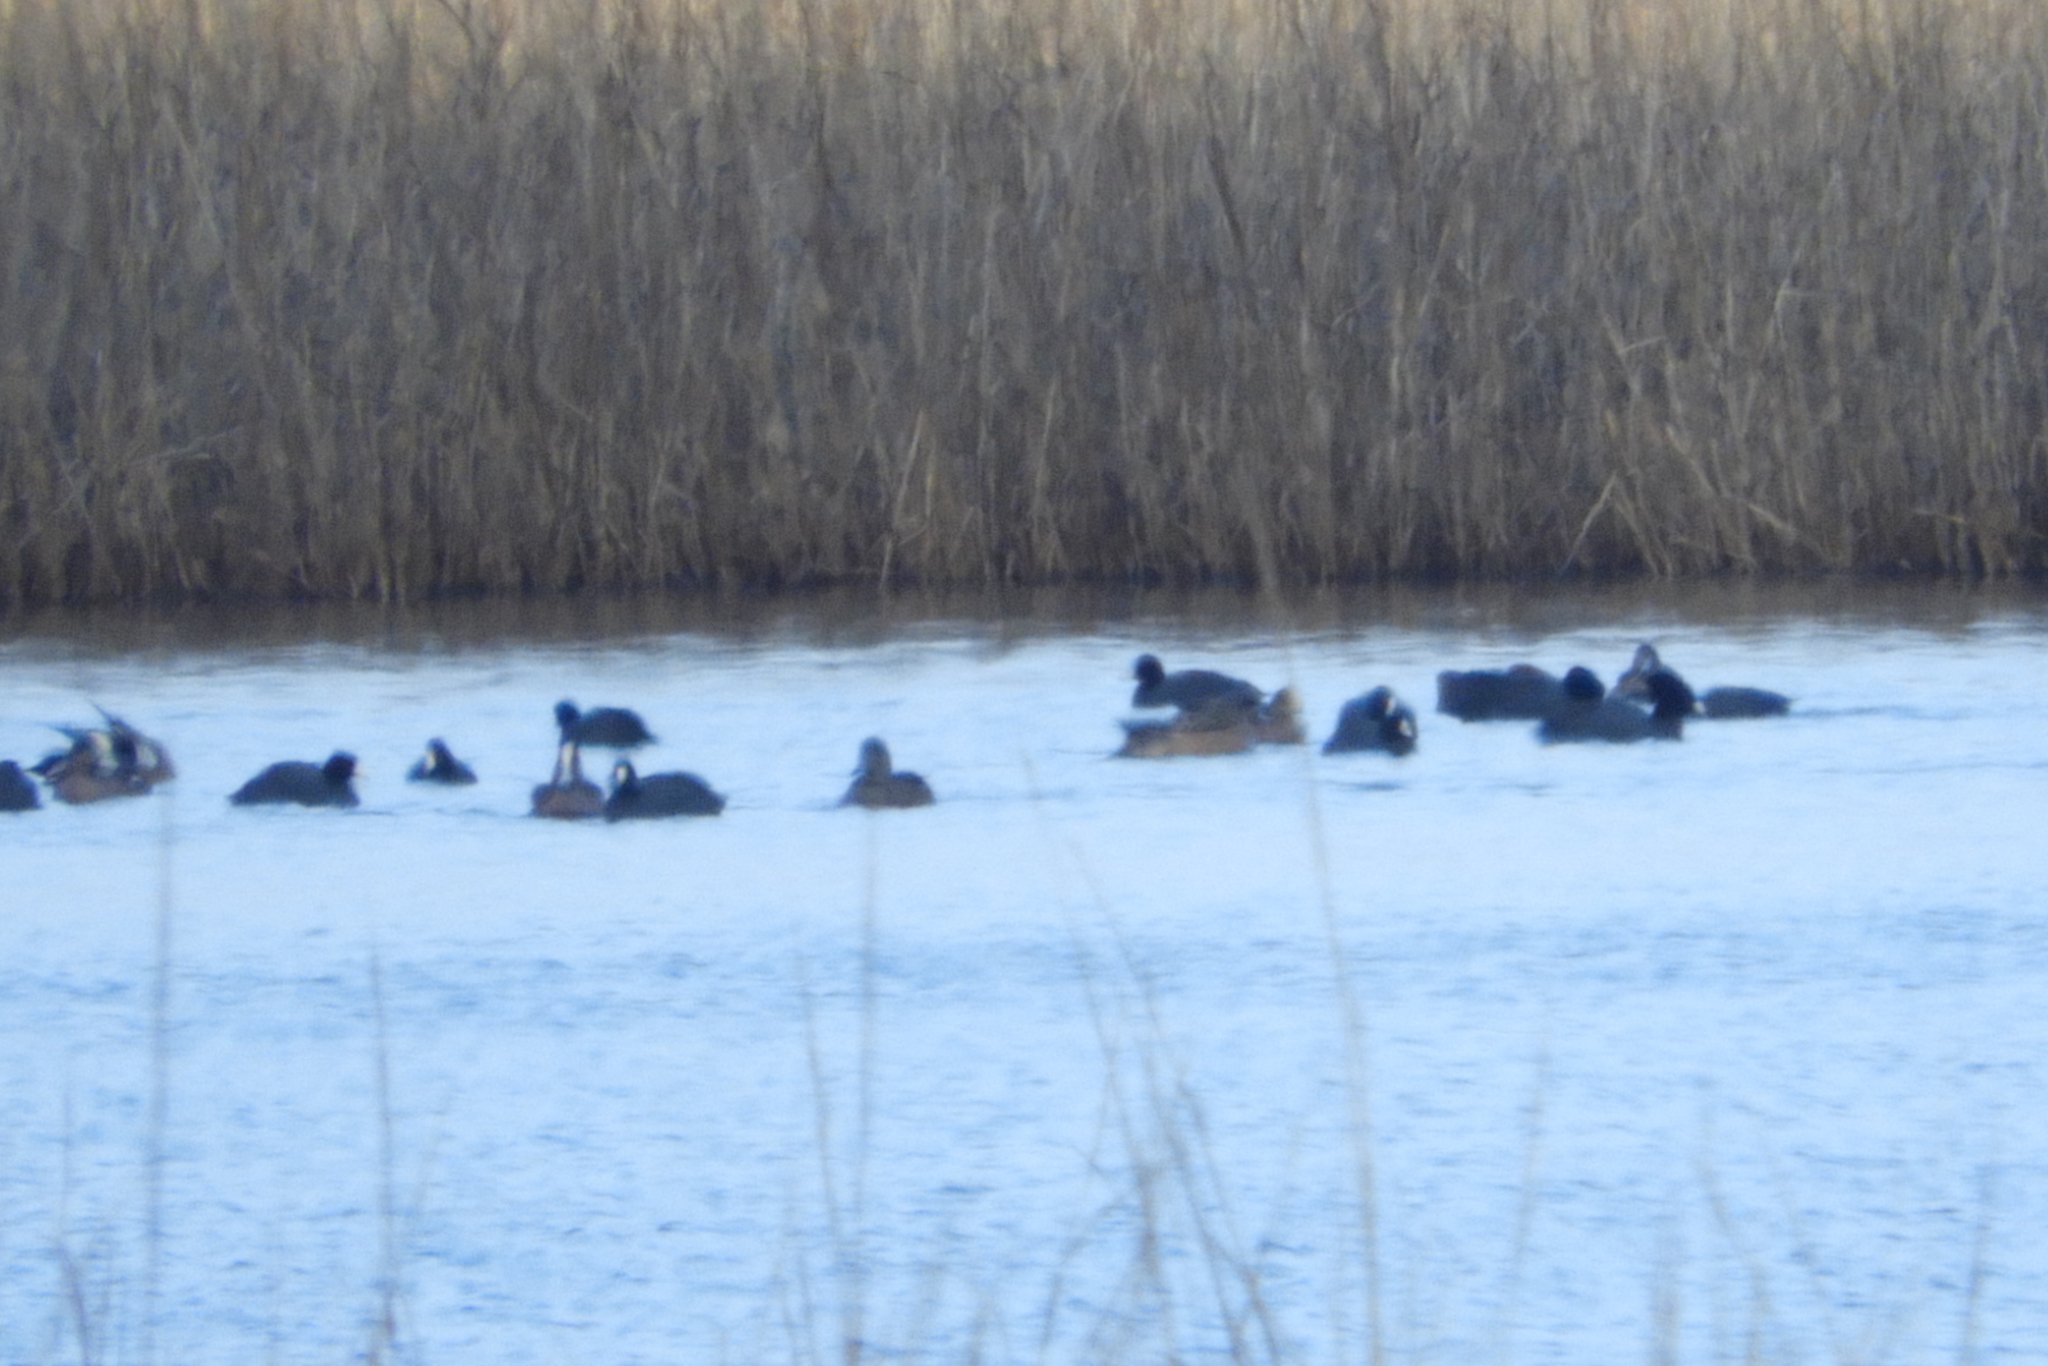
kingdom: Animalia
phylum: Chordata
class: Aves
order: Gruiformes
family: Rallidae
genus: Fulica
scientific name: Fulica americana
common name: American coot
